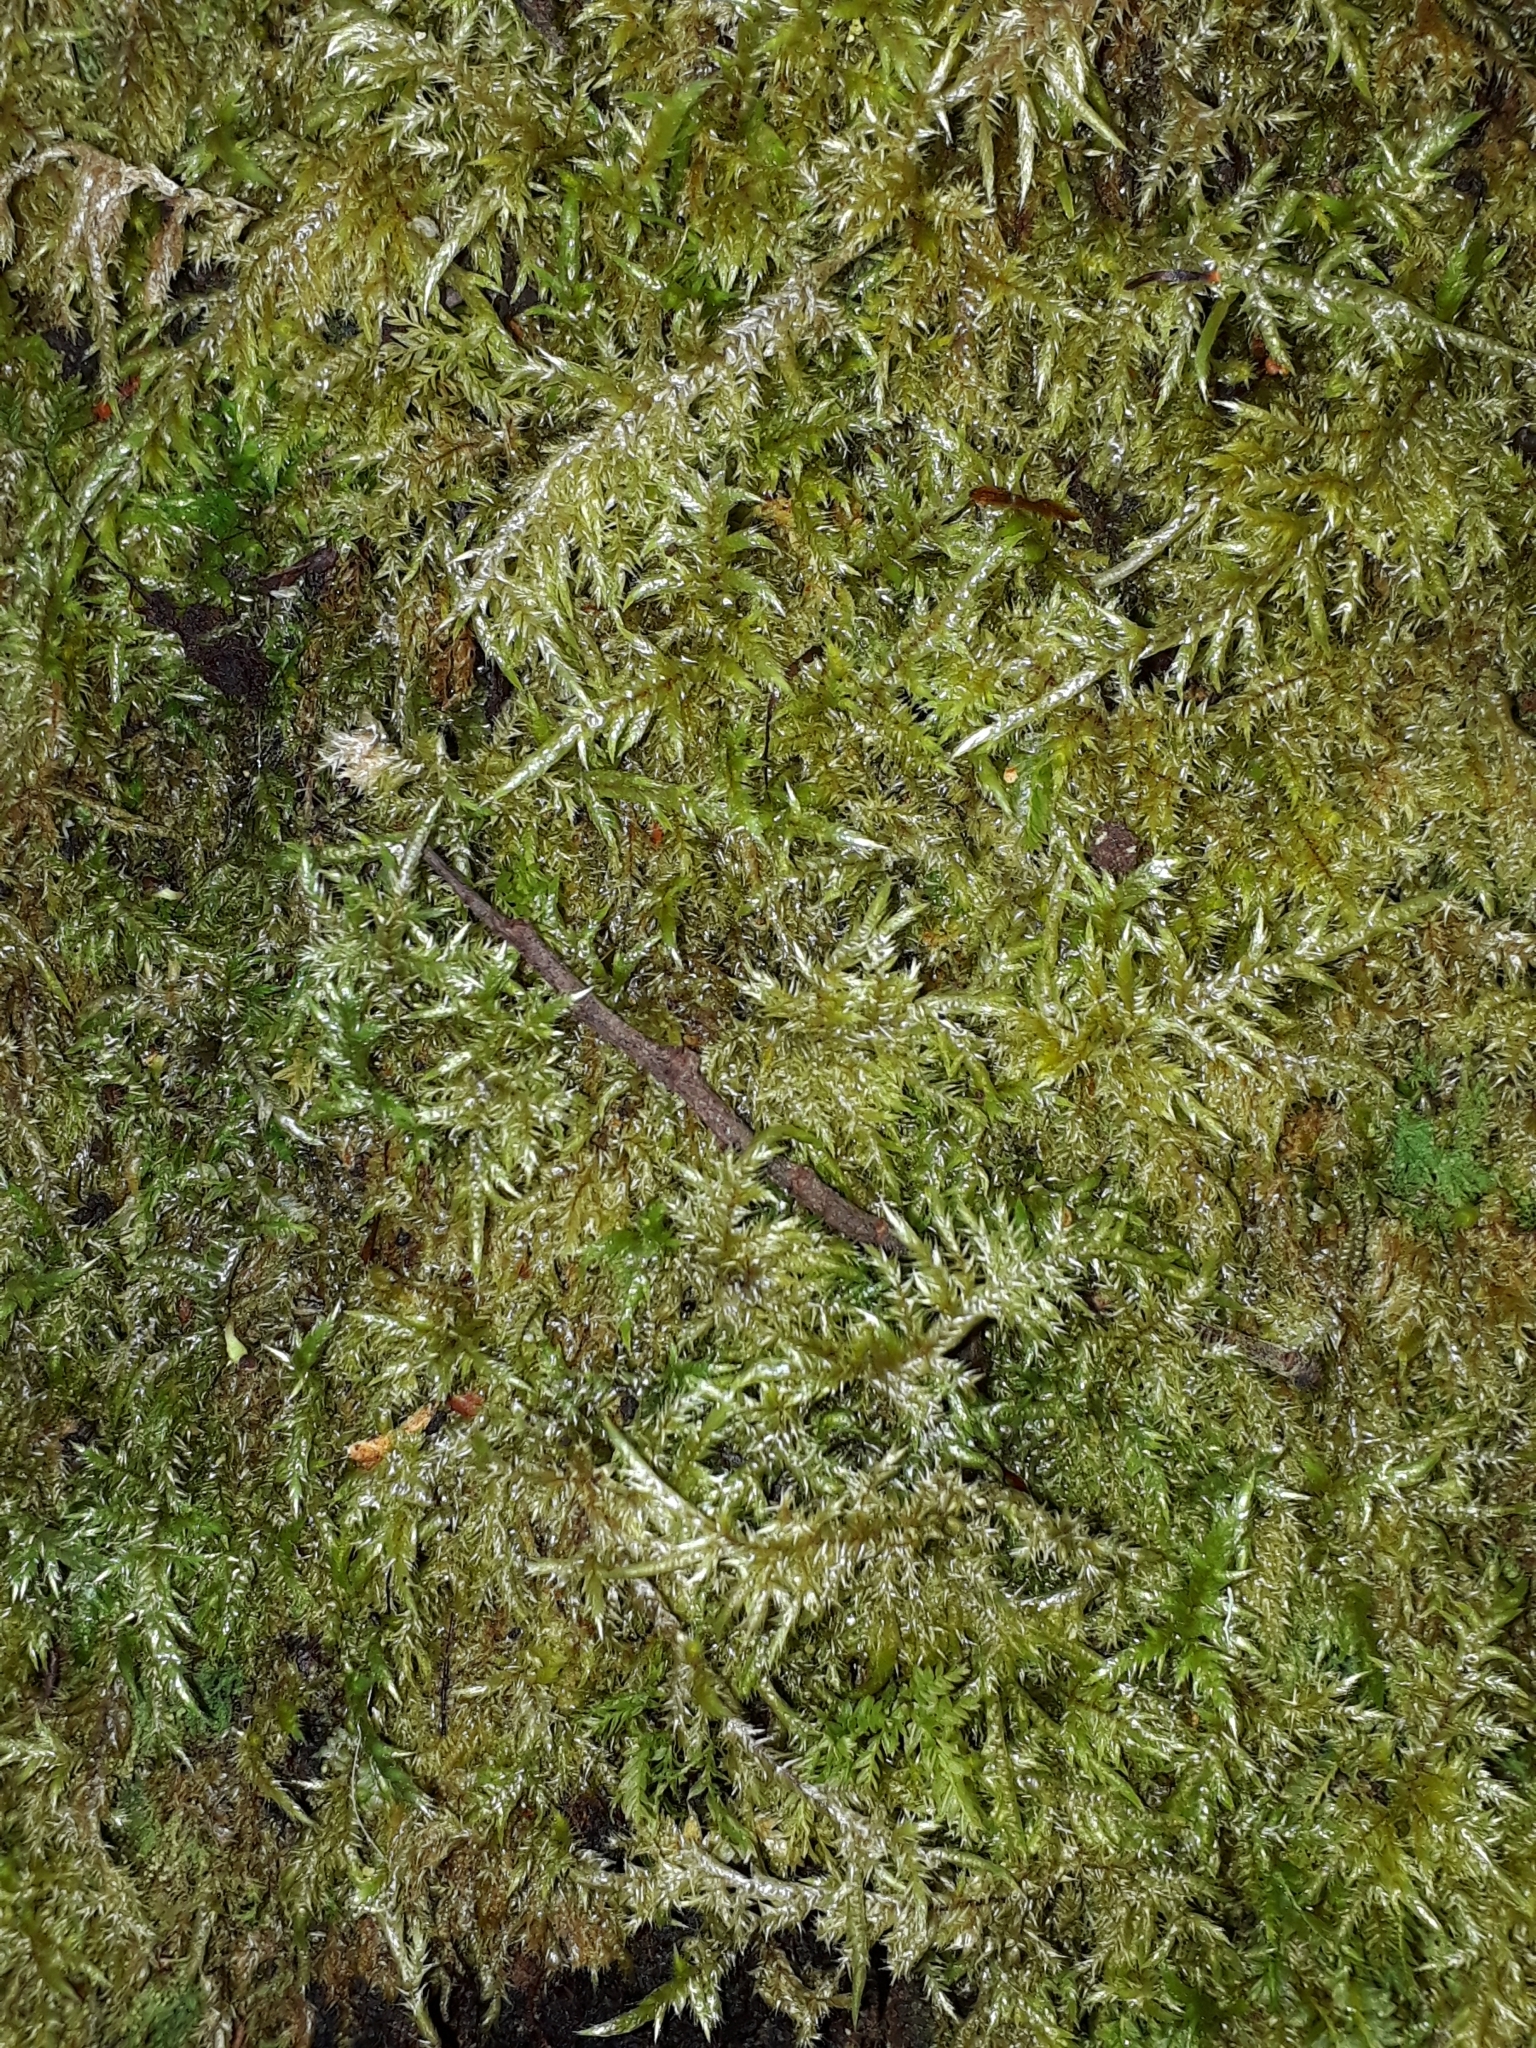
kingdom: Plantae
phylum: Bryophyta
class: Bryopsida
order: Hypnales
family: Pylaisiadelphaceae
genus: Wijkia
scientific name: Wijkia extenuata
